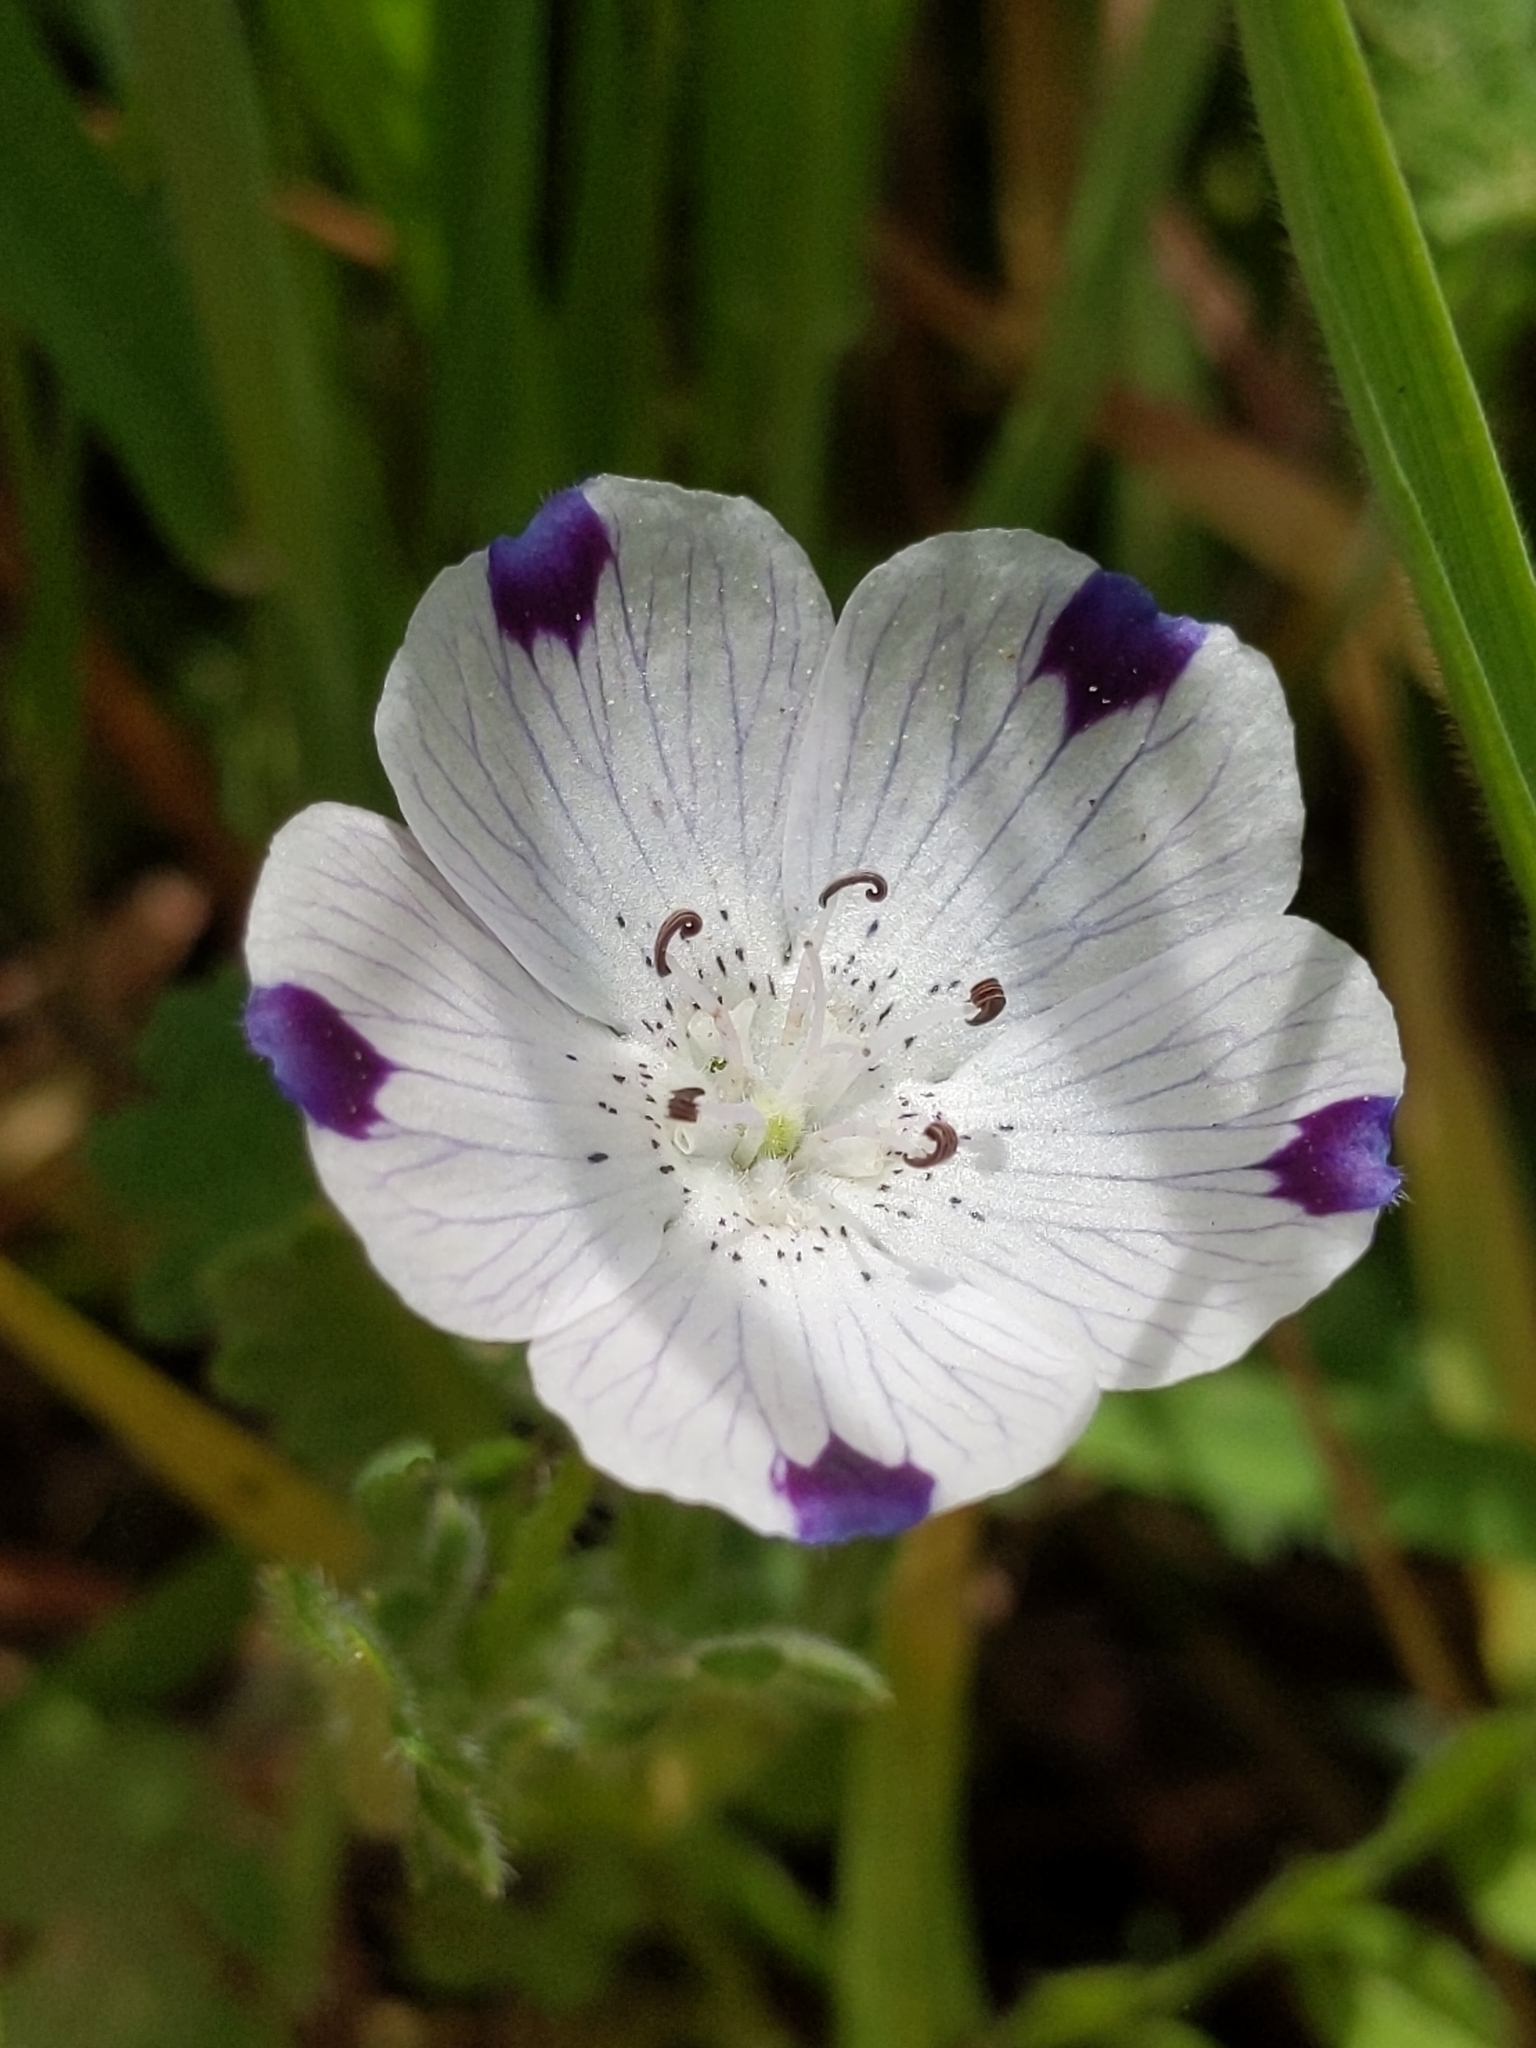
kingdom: Plantae
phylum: Tracheophyta
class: Magnoliopsida
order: Boraginales
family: Hydrophyllaceae
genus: Nemophila
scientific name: Nemophila maculata
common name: Fivespot
